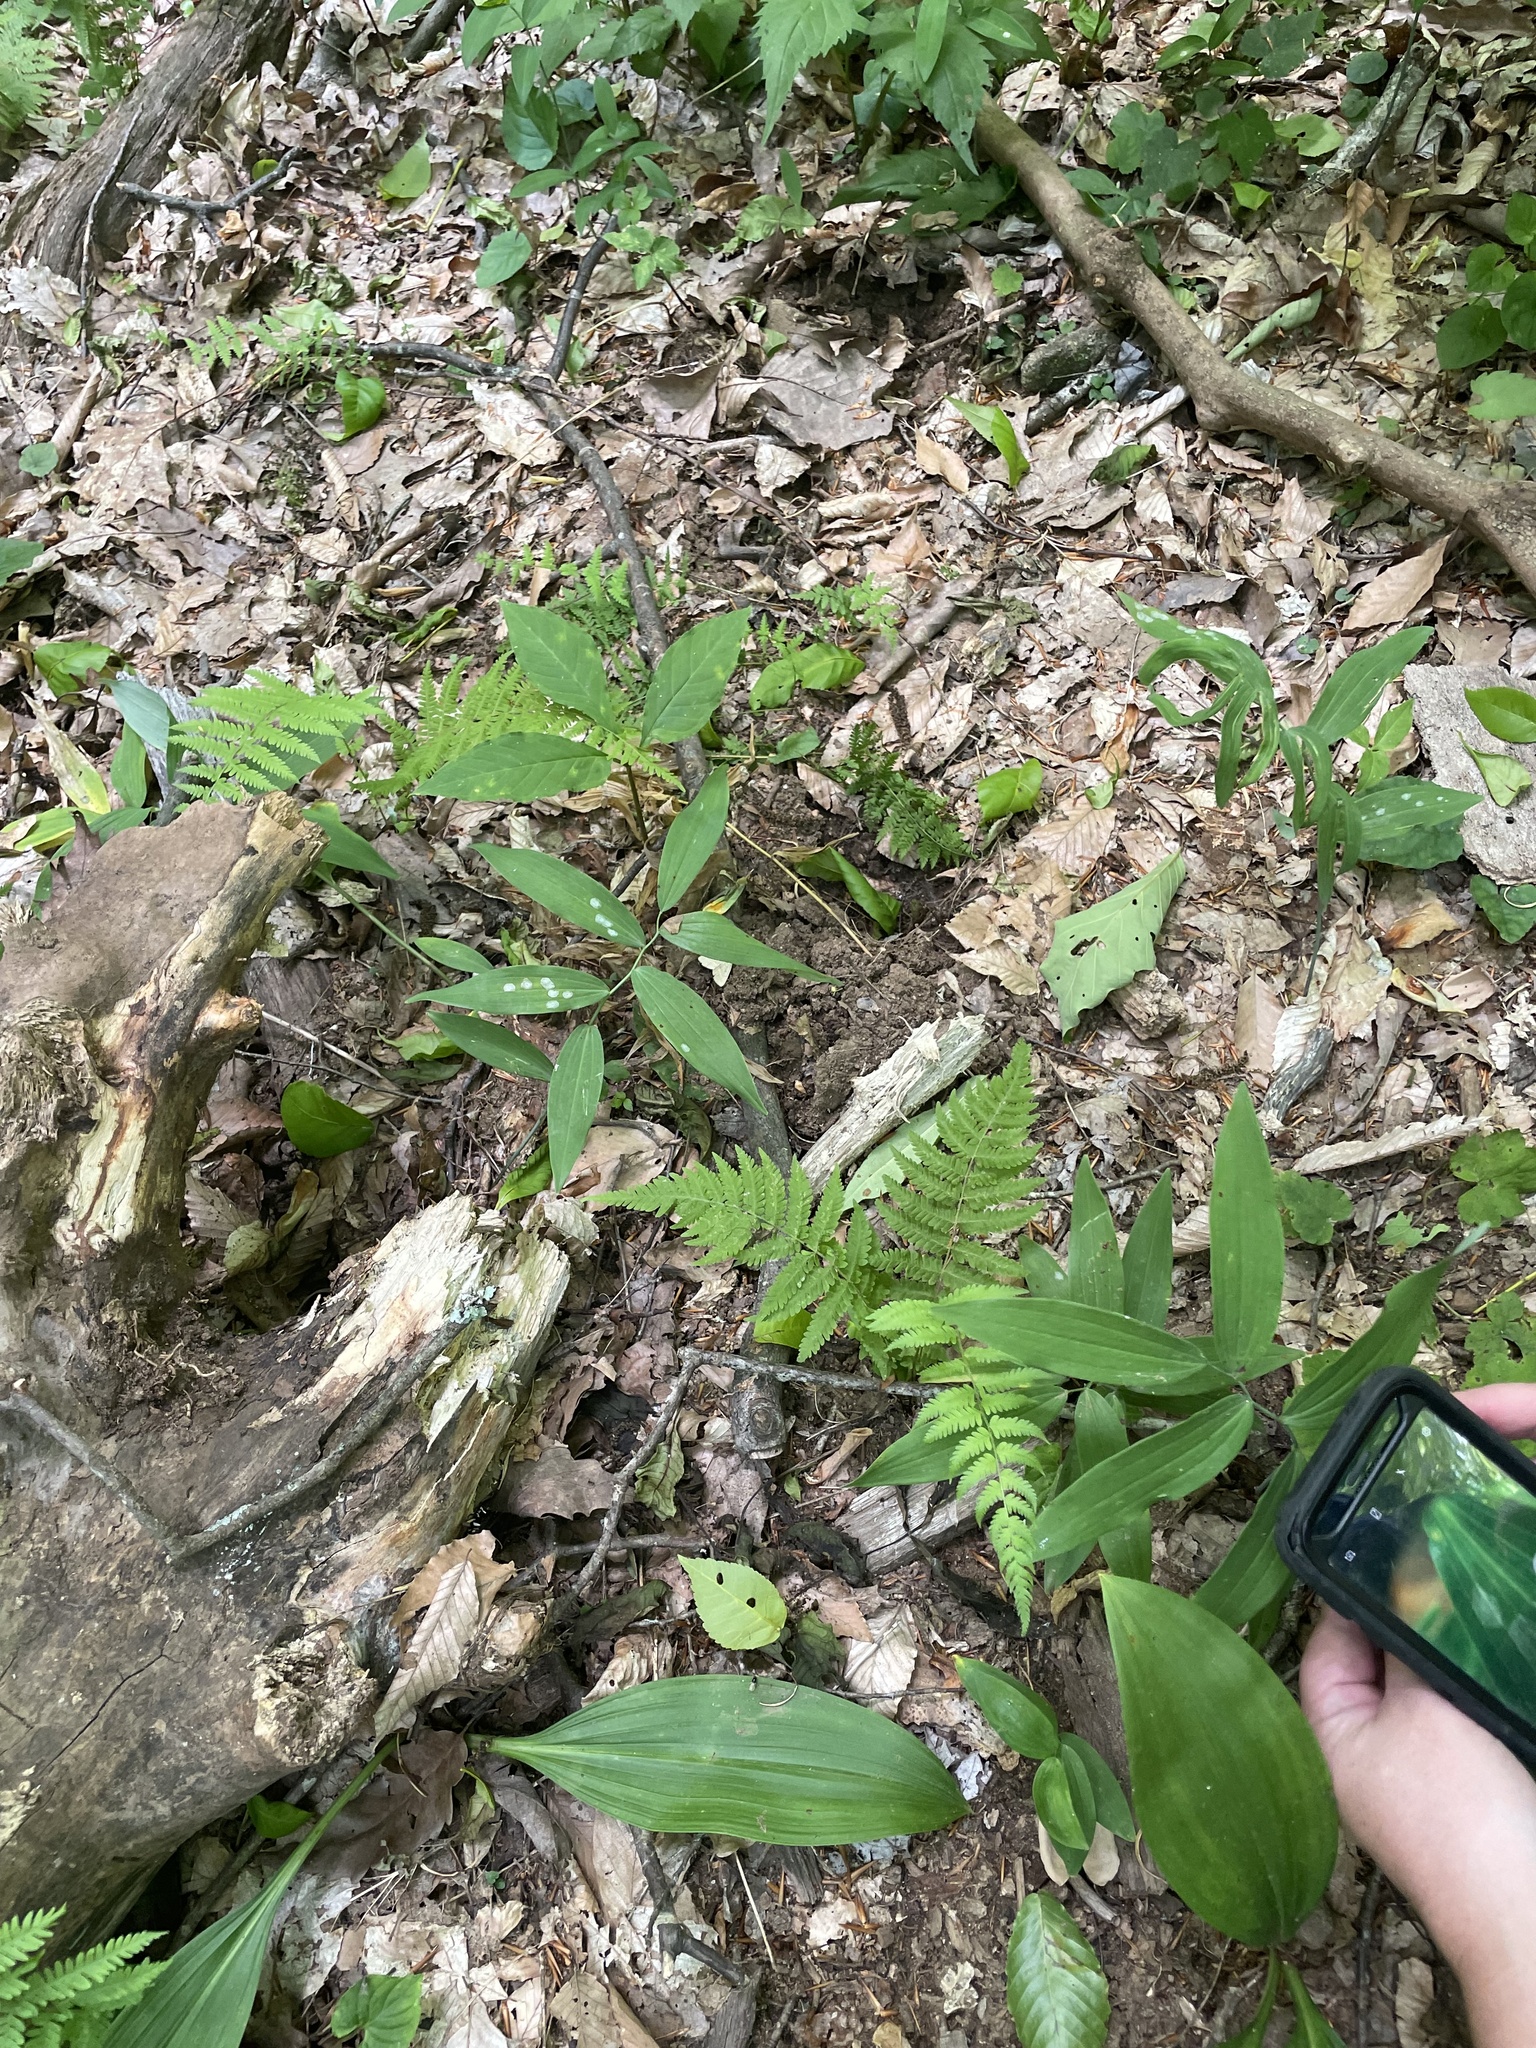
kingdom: Plantae
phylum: Tracheophyta
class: Liliopsida
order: Asparagales
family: Asparagaceae
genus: Polygonatum
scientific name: Polygonatum biflorum
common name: American solomon's-seal
